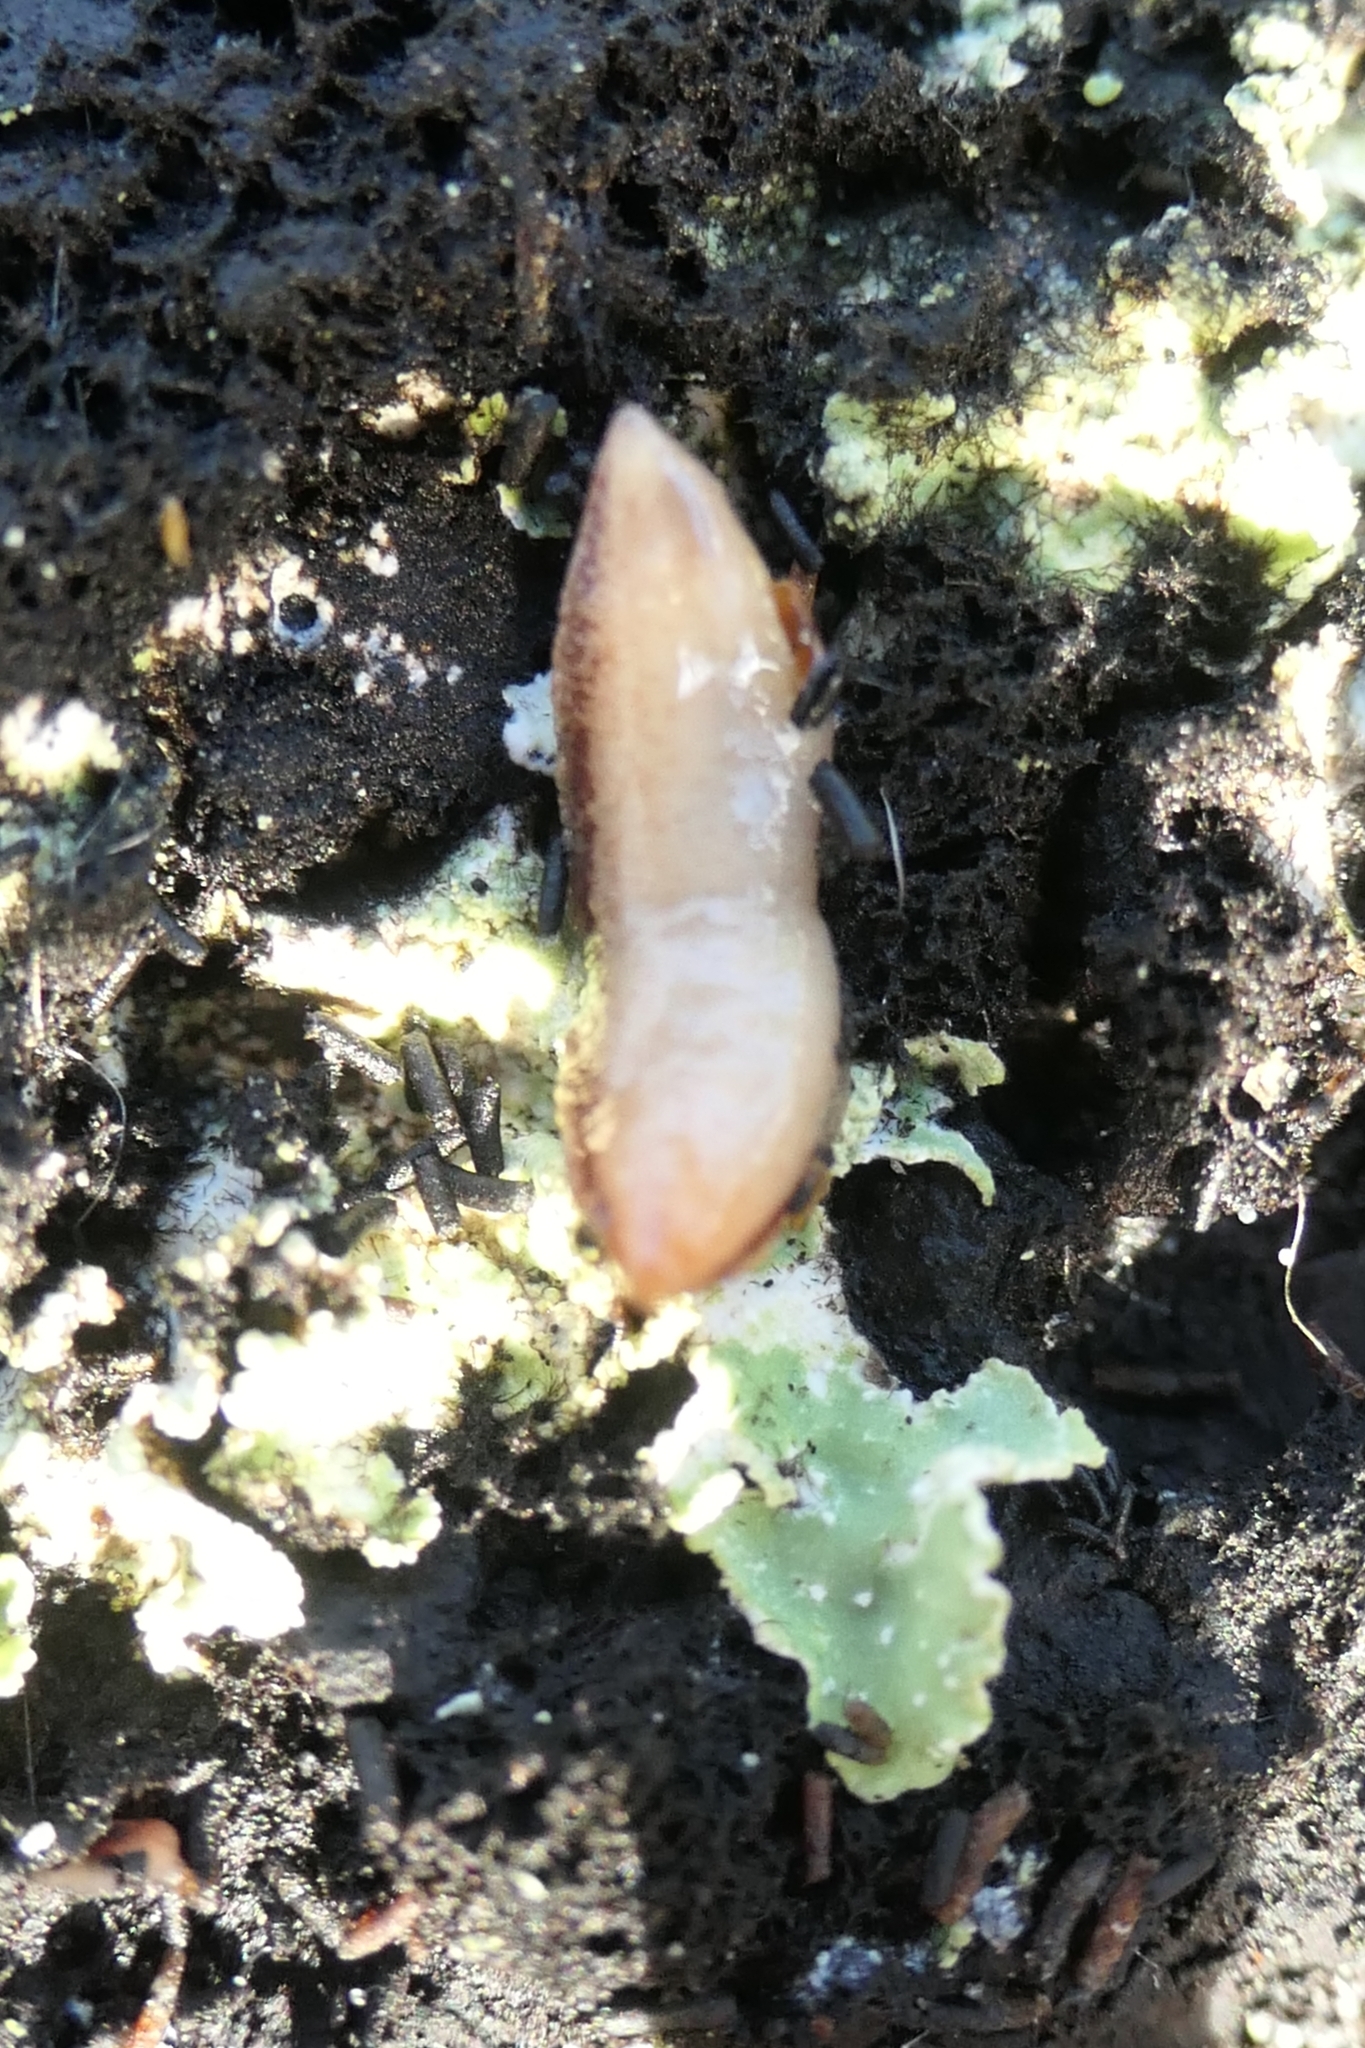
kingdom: Animalia
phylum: Platyhelminthes
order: Tricladida
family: Geoplanidae
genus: Artioposthia
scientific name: Artioposthia
